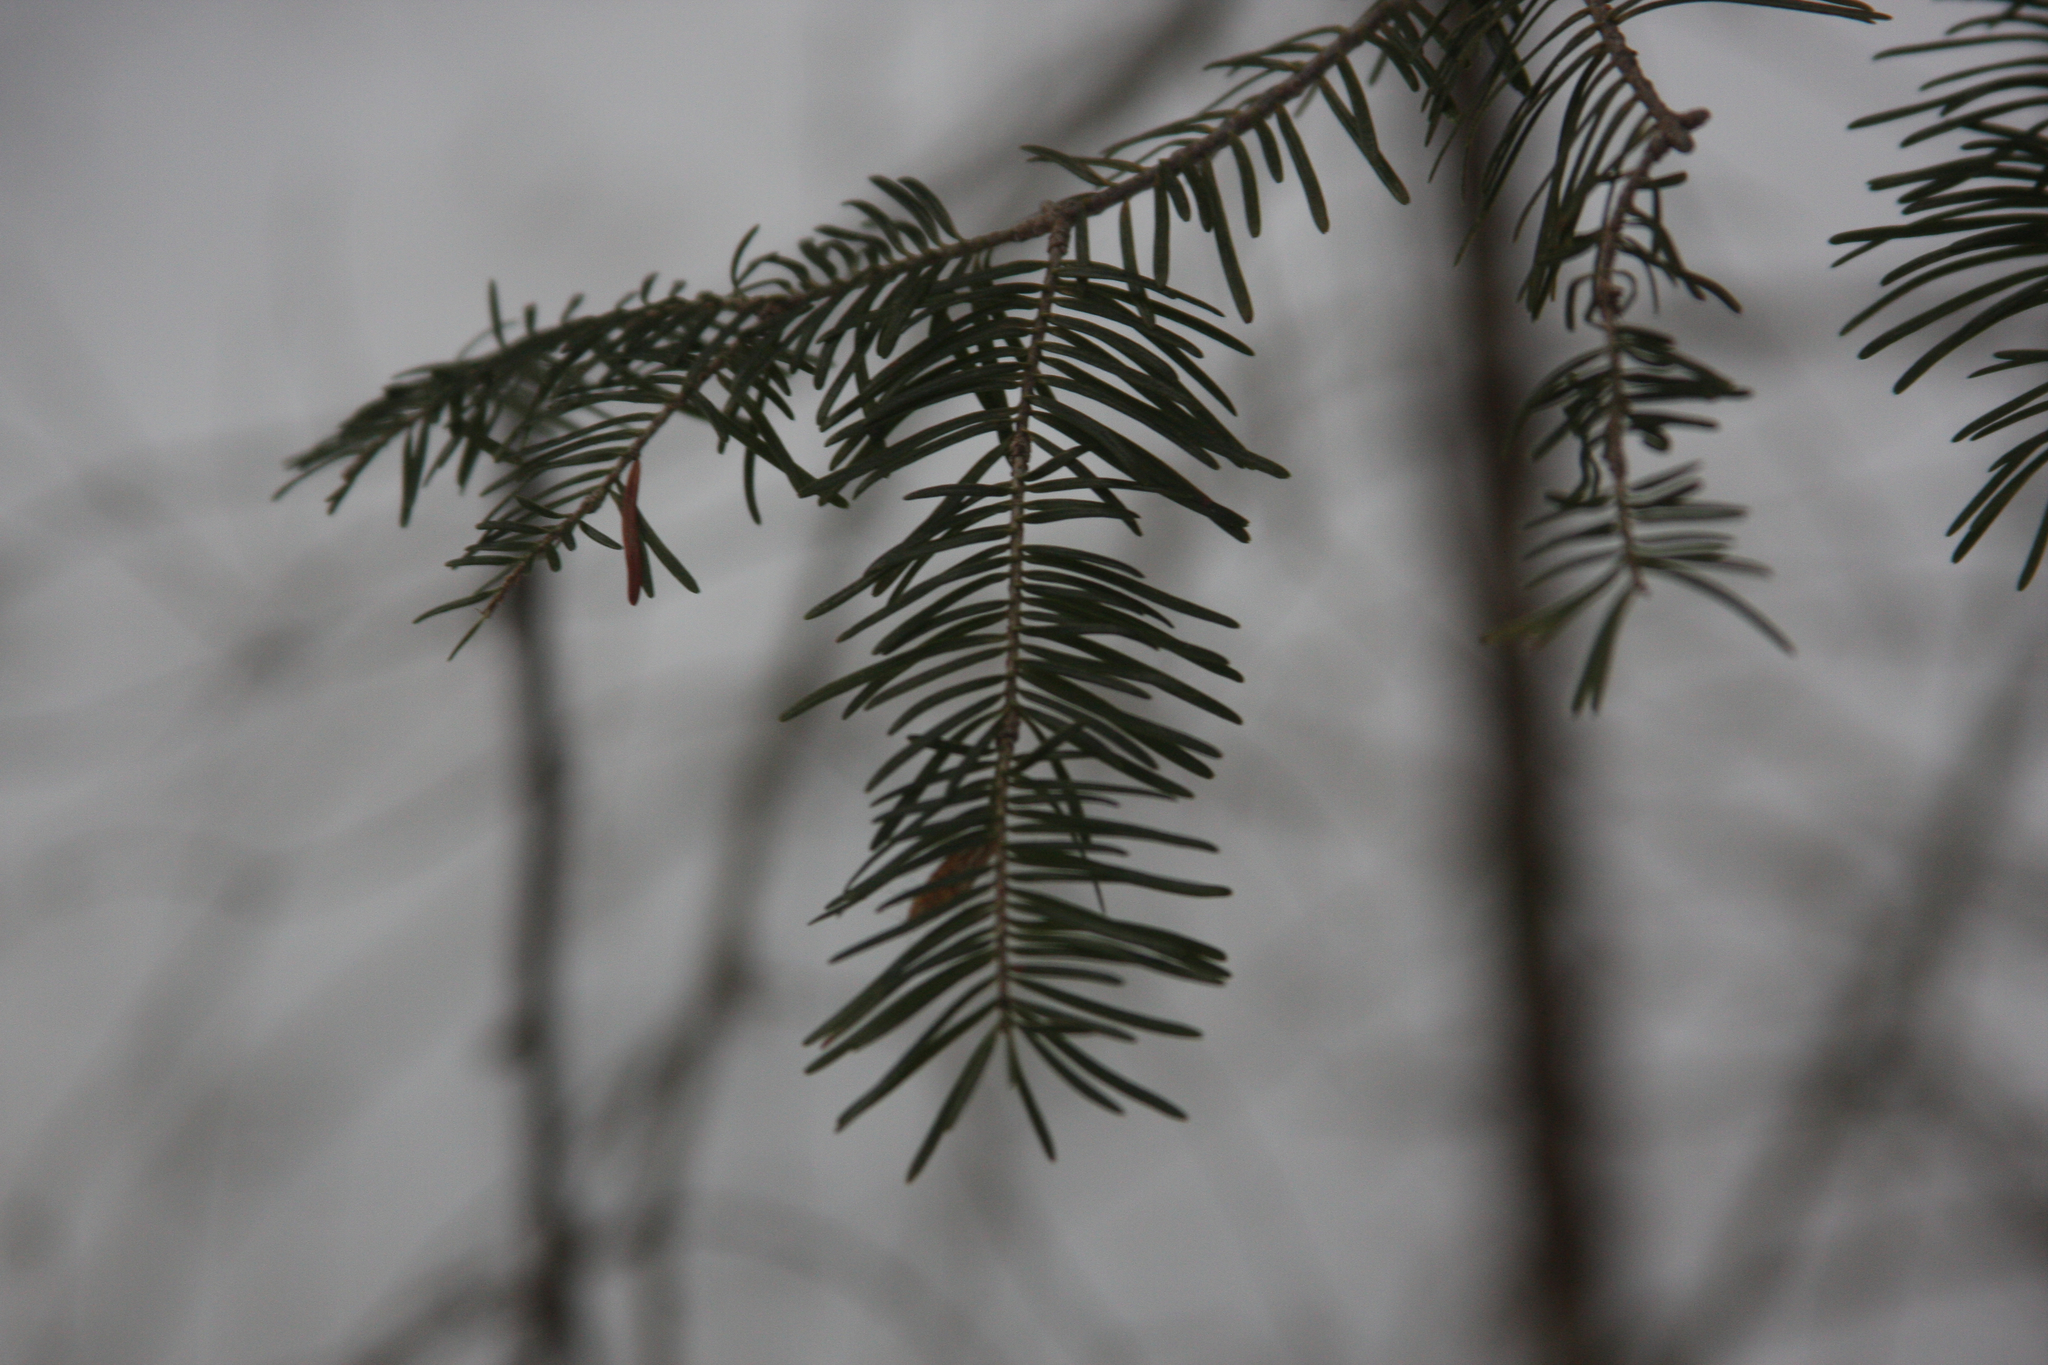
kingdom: Plantae
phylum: Tracheophyta
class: Pinopsida
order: Pinales
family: Pinaceae
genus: Abies
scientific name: Abies balsamea
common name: Balsam fir
